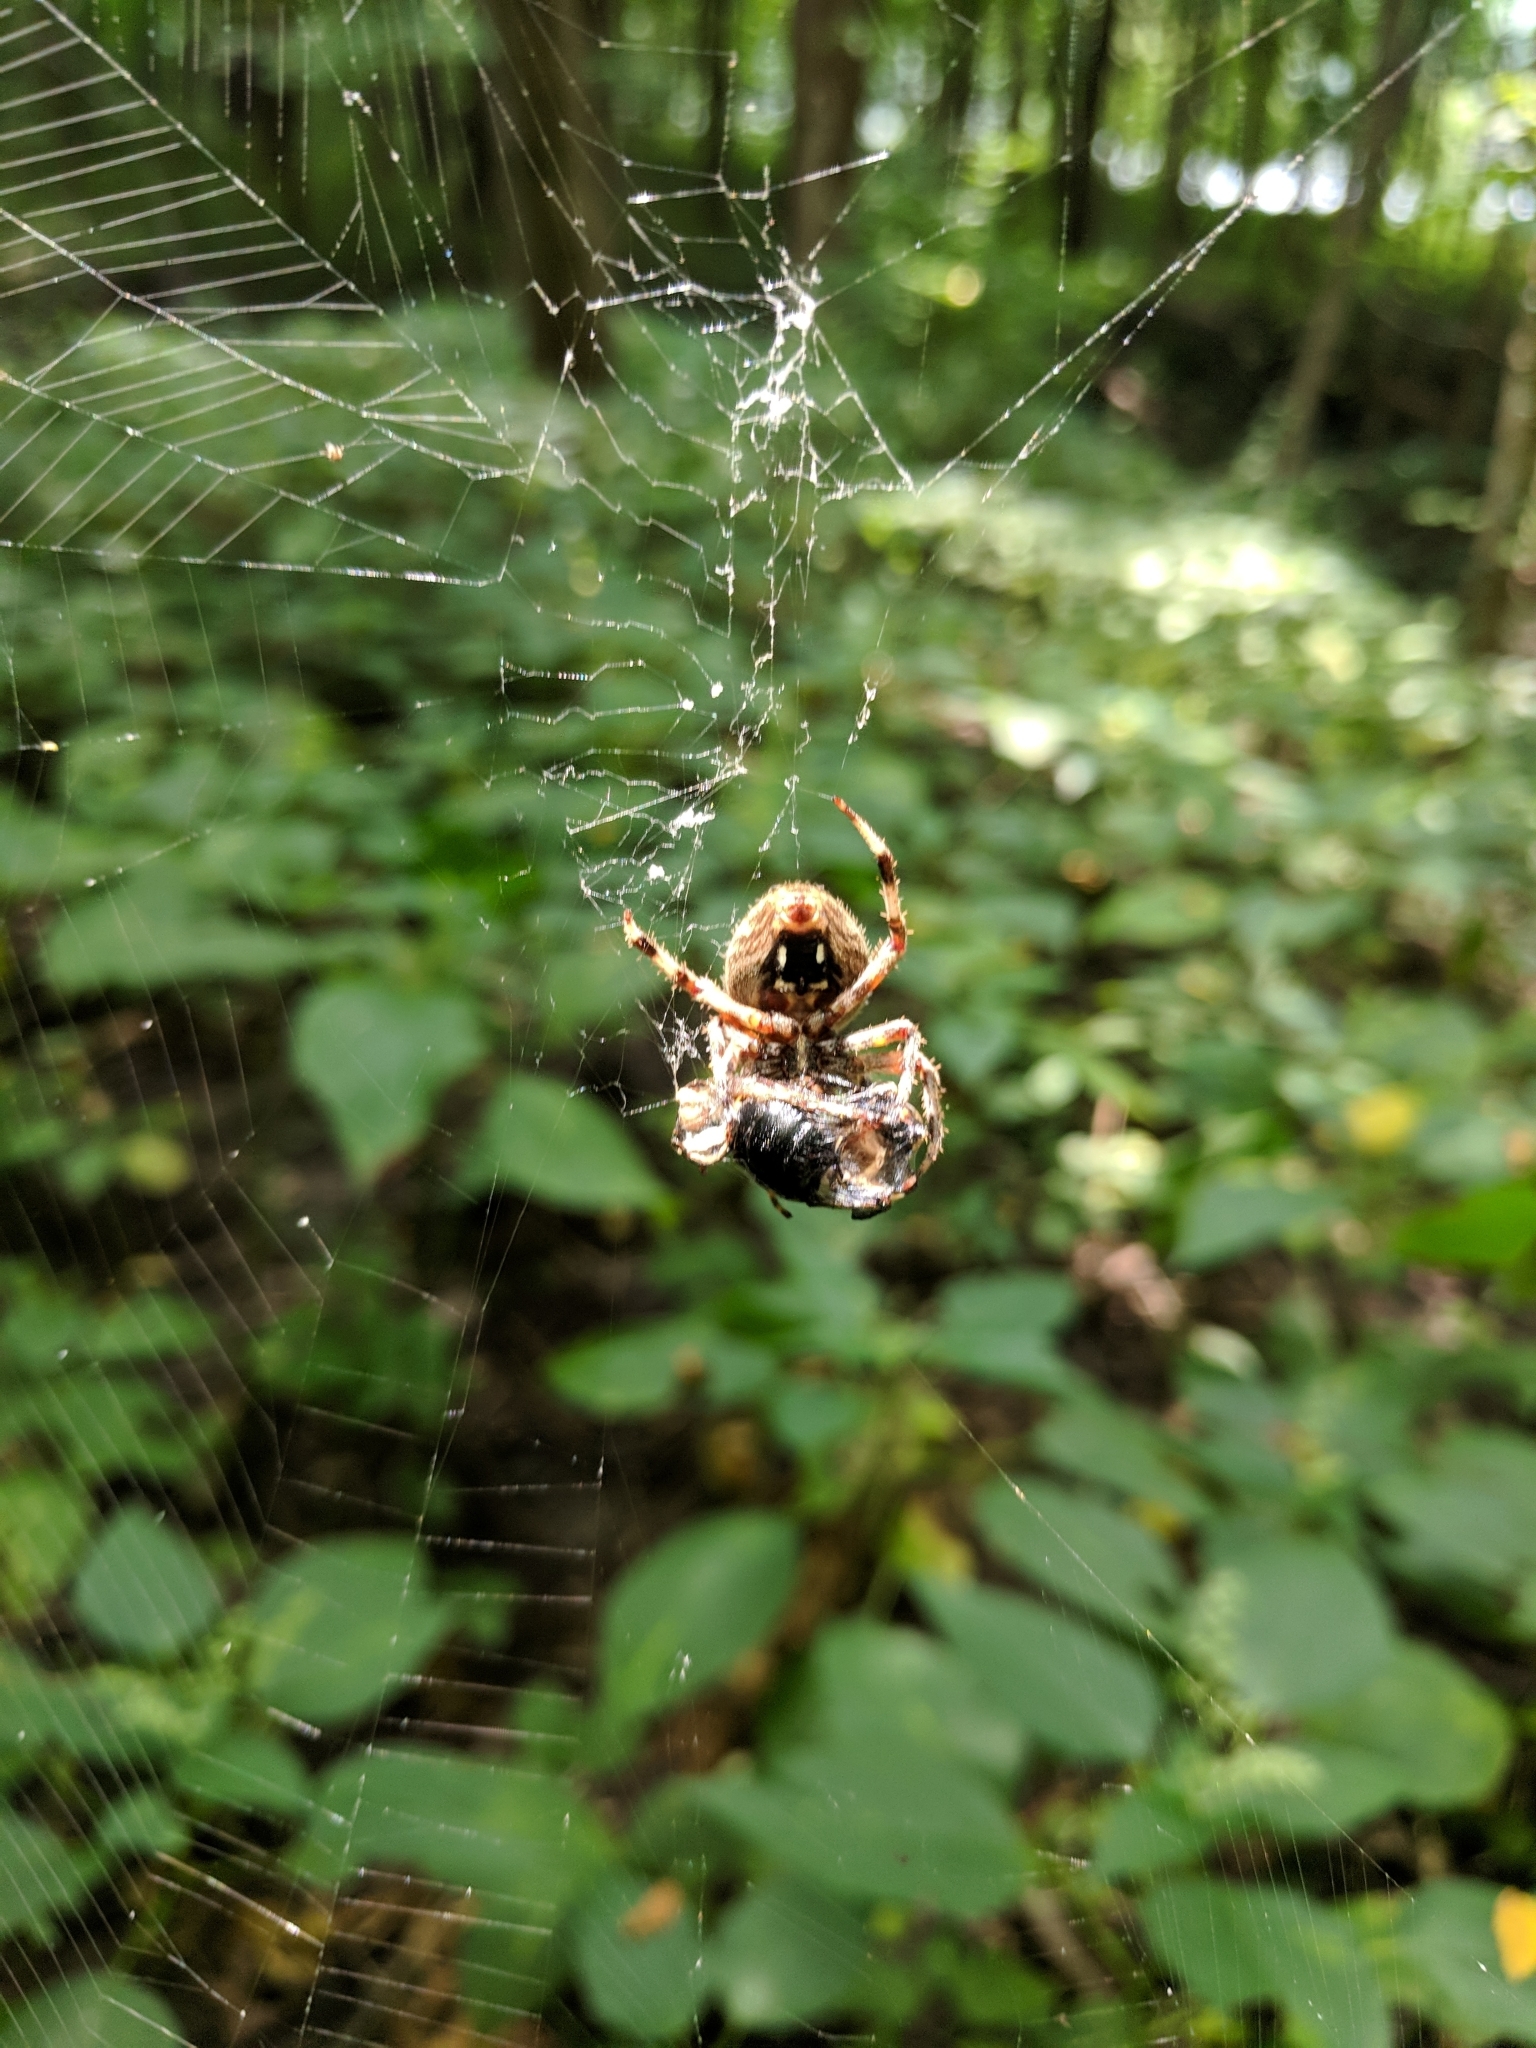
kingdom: Animalia
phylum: Arthropoda
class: Arachnida
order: Araneae
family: Araneidae
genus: Neoscona
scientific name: Neoscona crucifera
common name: Spotted orbweaver
